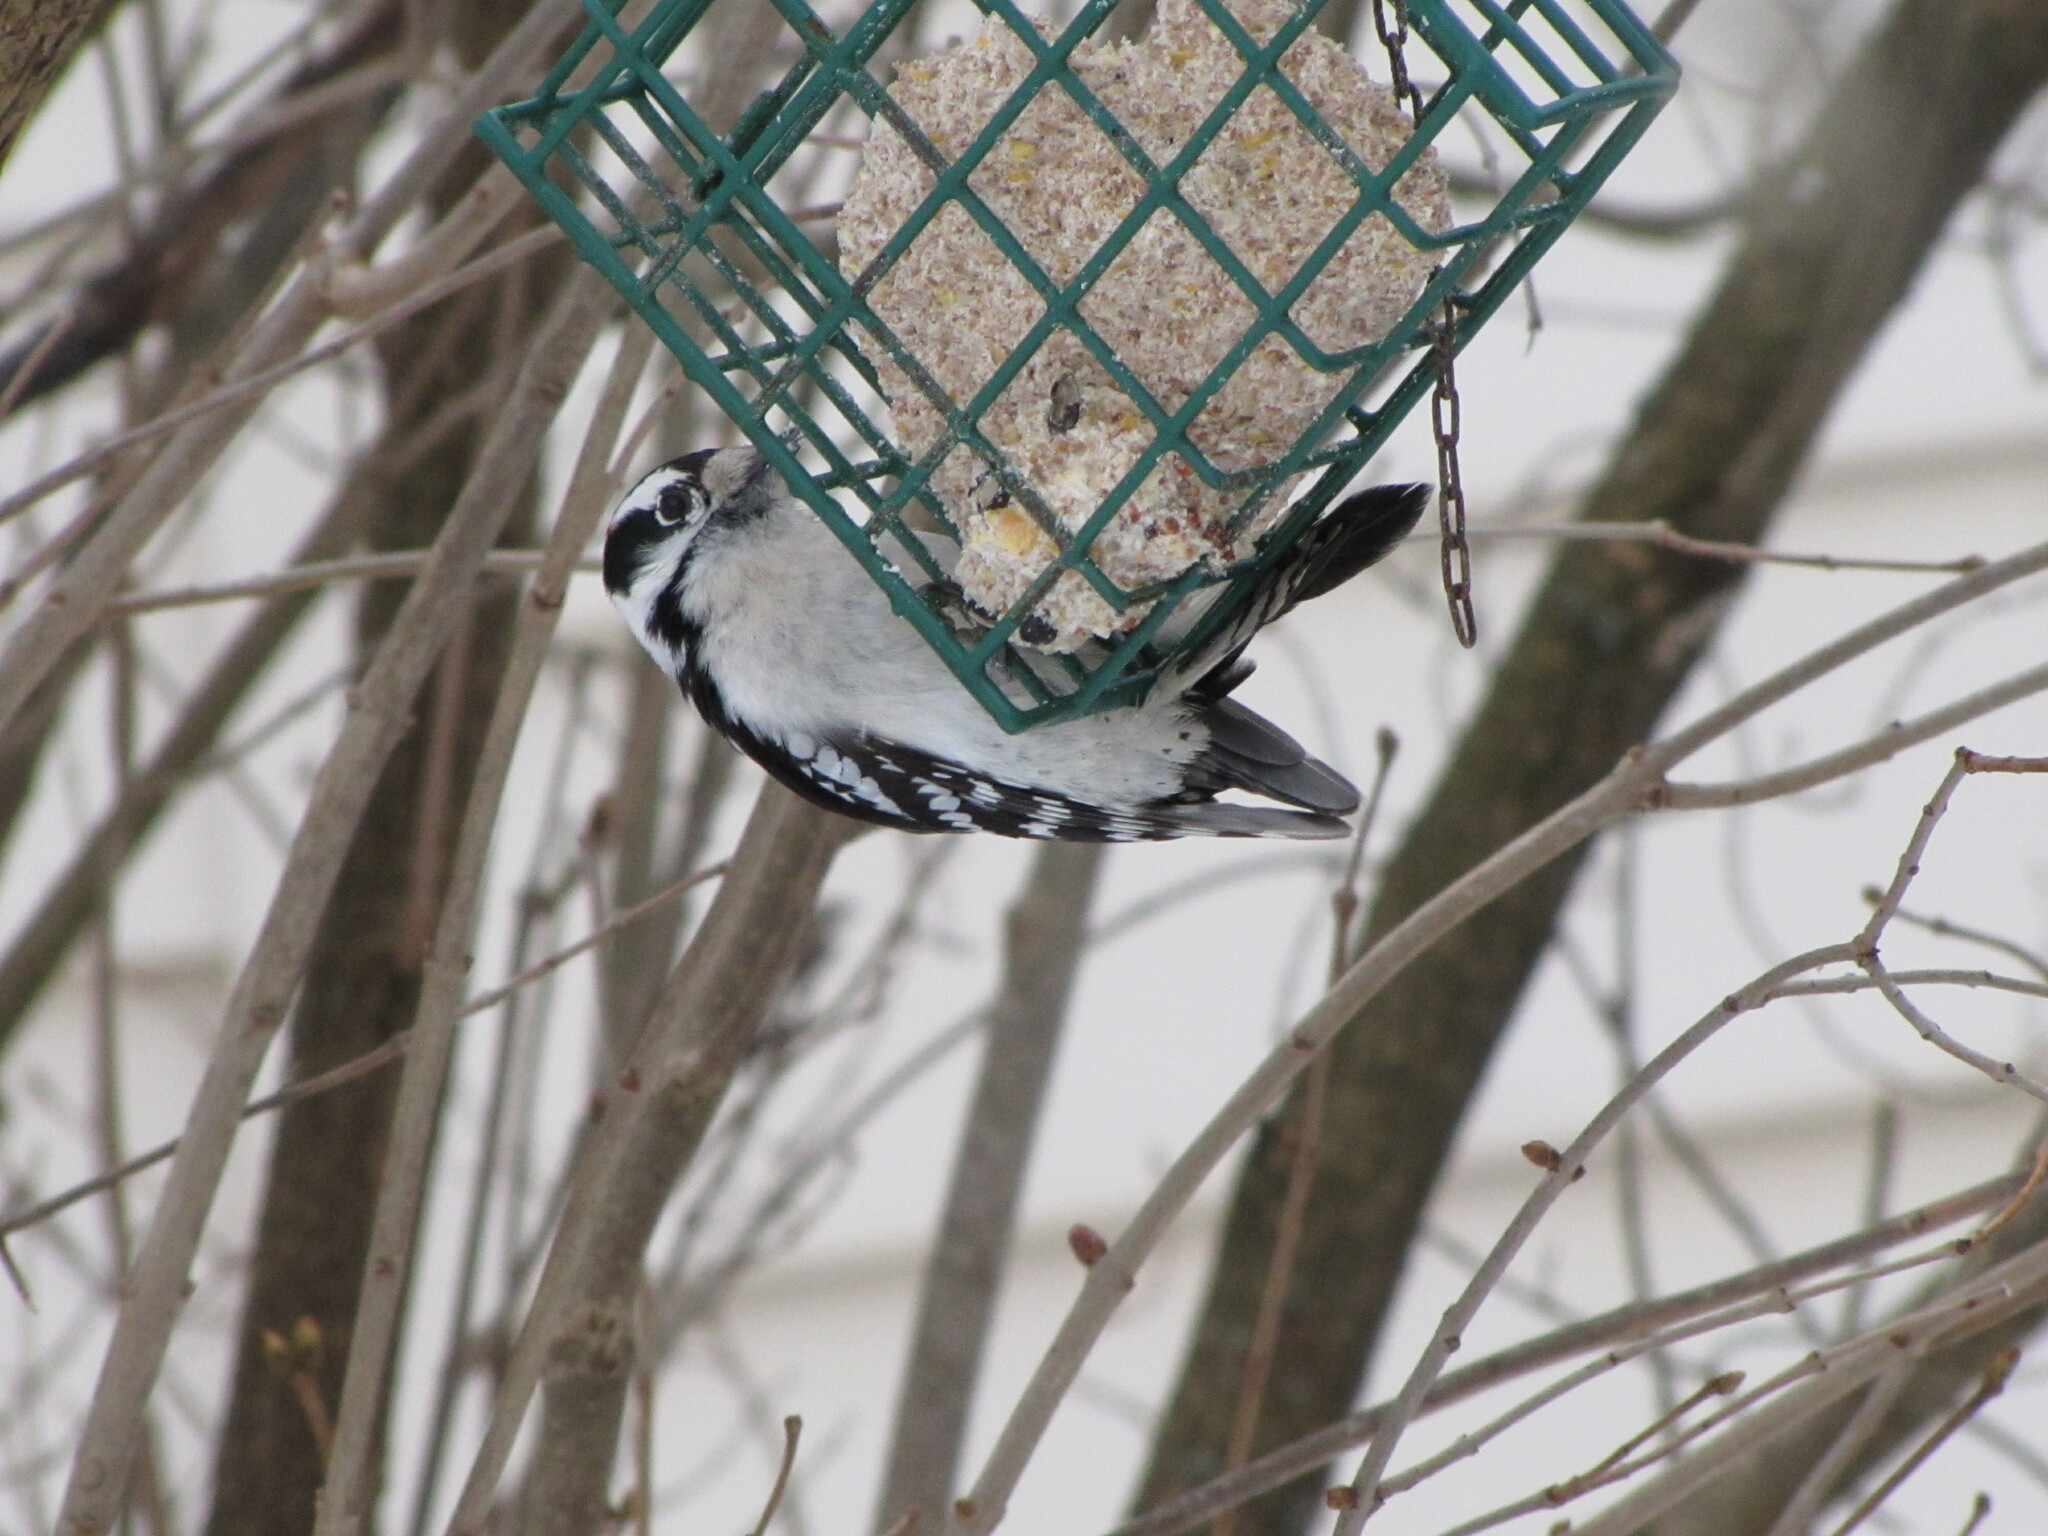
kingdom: Animalia
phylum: Chordata
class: Aves
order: Piciformes
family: Picidae
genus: Dryobates
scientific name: Dryobates pubescens
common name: Downy woodpecker
